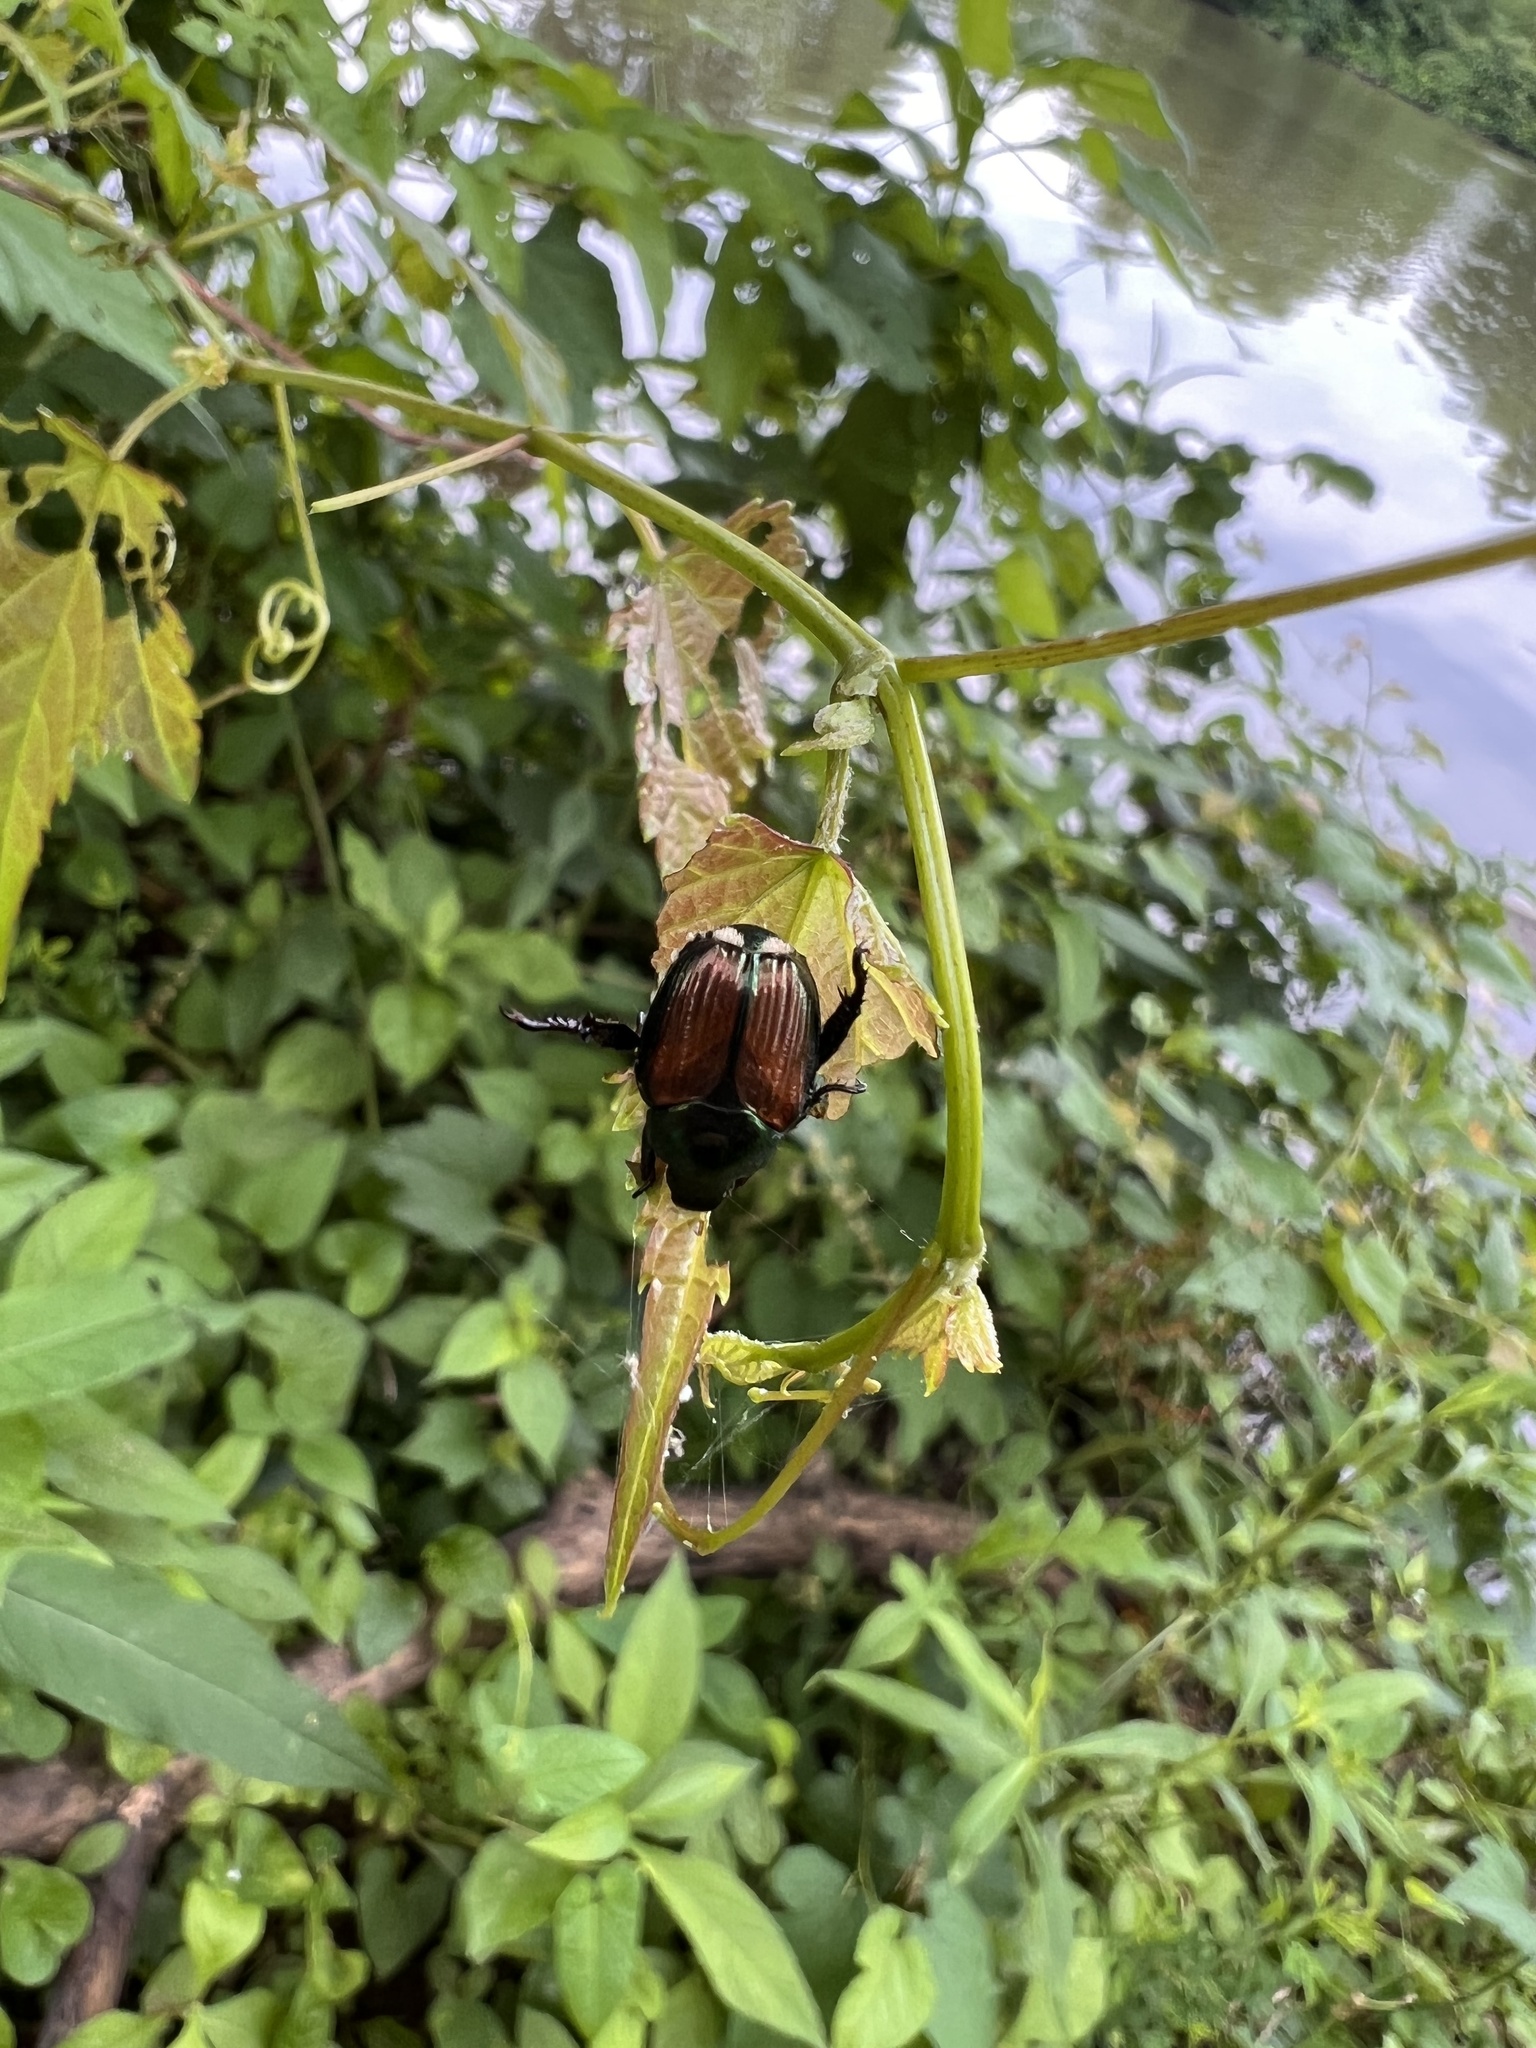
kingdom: Animalia
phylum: Arthropoda
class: Insecta
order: Coleoptera
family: Scarabaeidae
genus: Popillia
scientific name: Popillia japonica
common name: Japanese beetle
